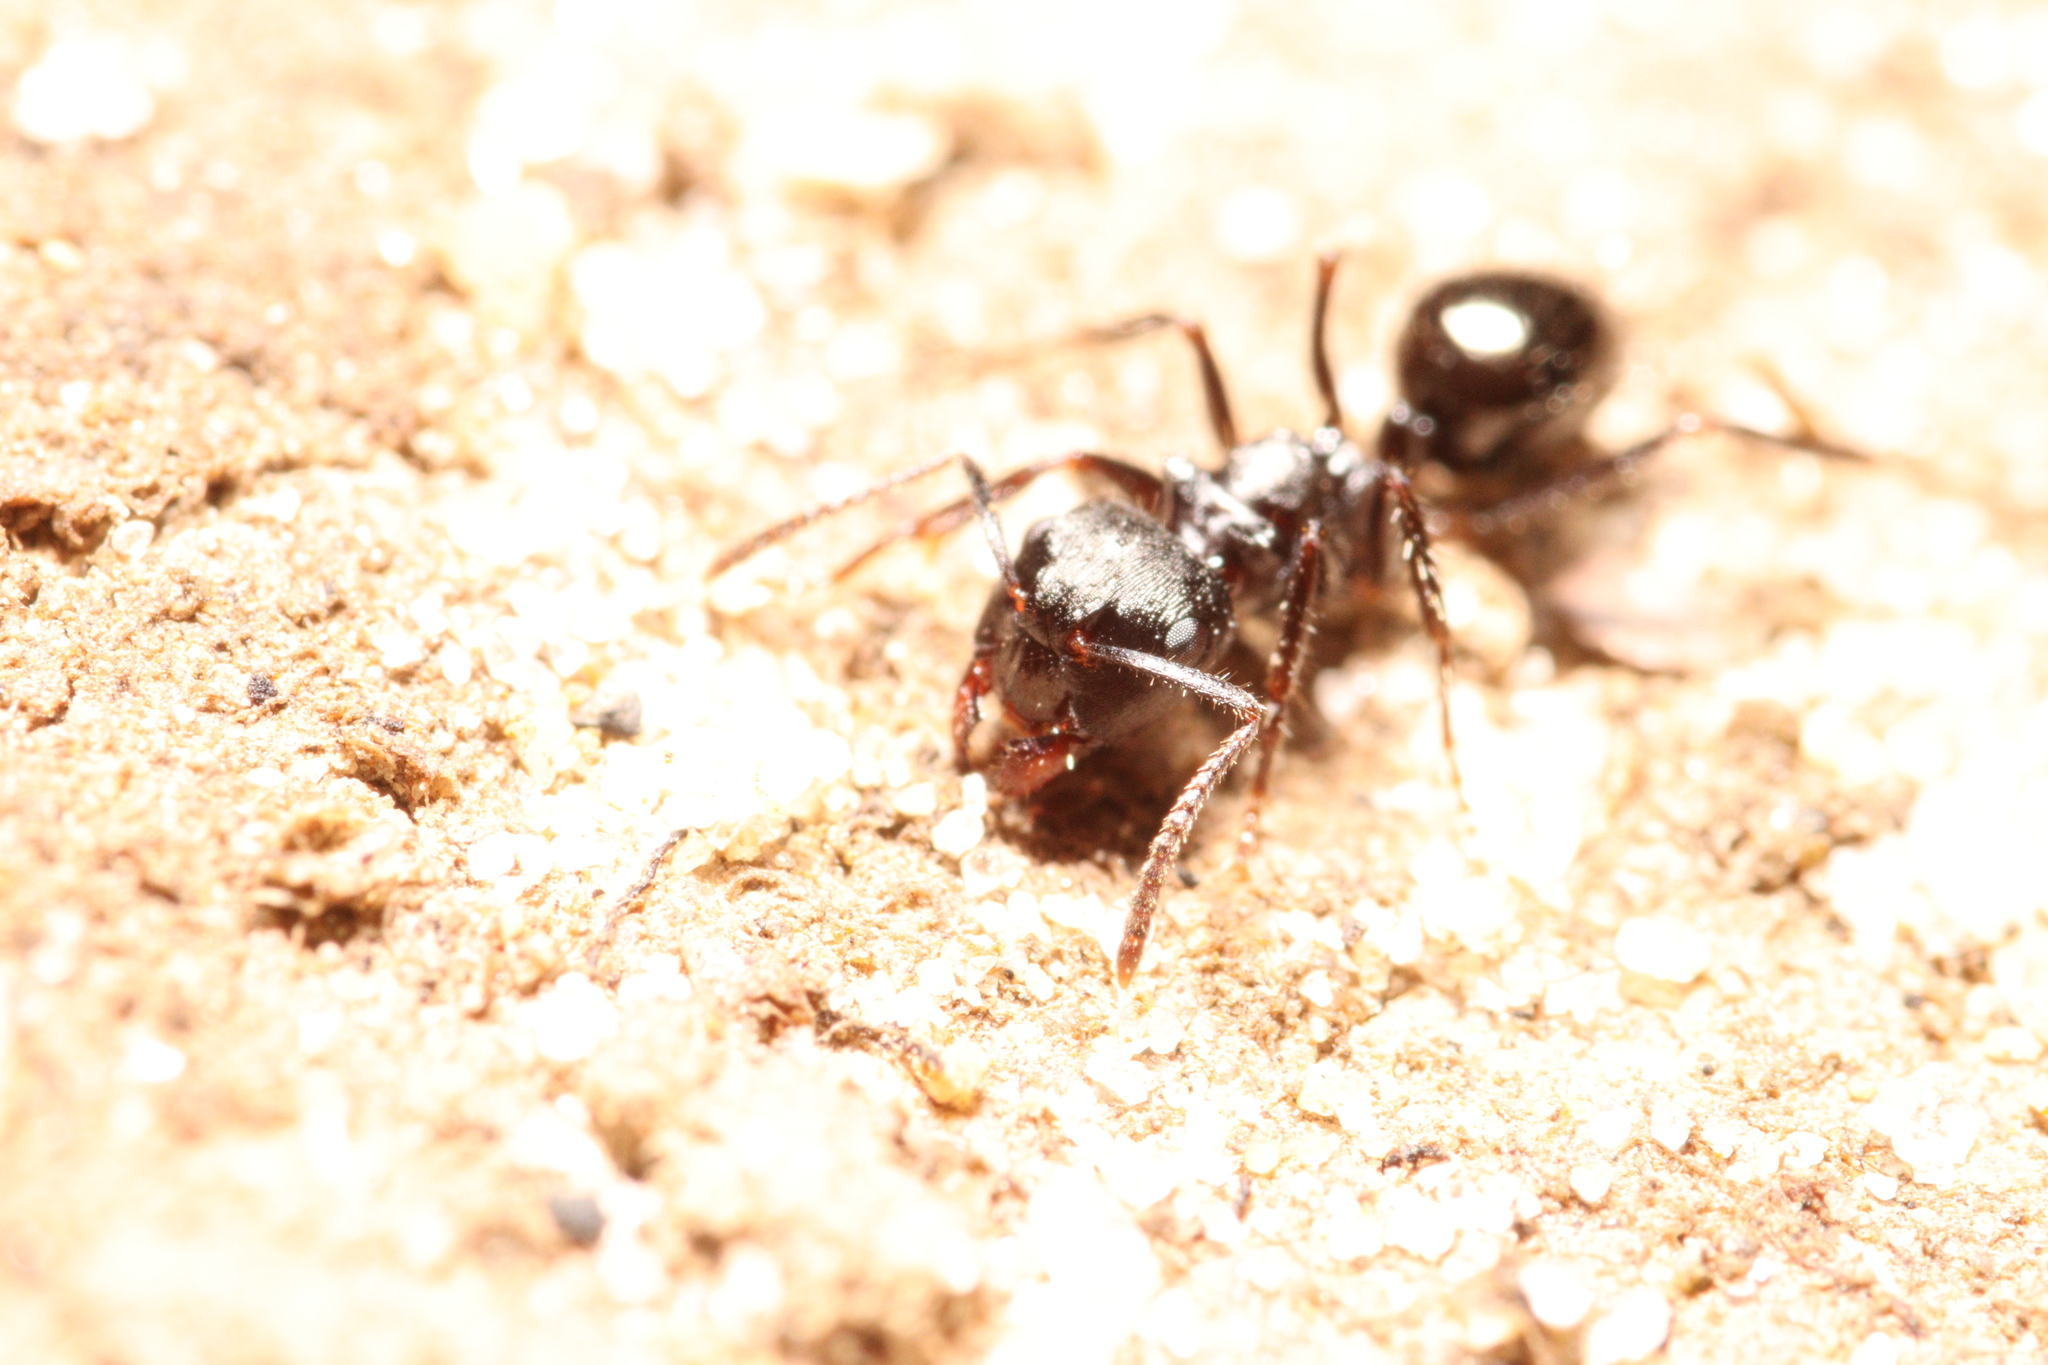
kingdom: Animalia
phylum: Arthropoda
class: Insecta
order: Hymenoptera
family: Formicidae
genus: Notoncus
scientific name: Notoncus ectatommoides
